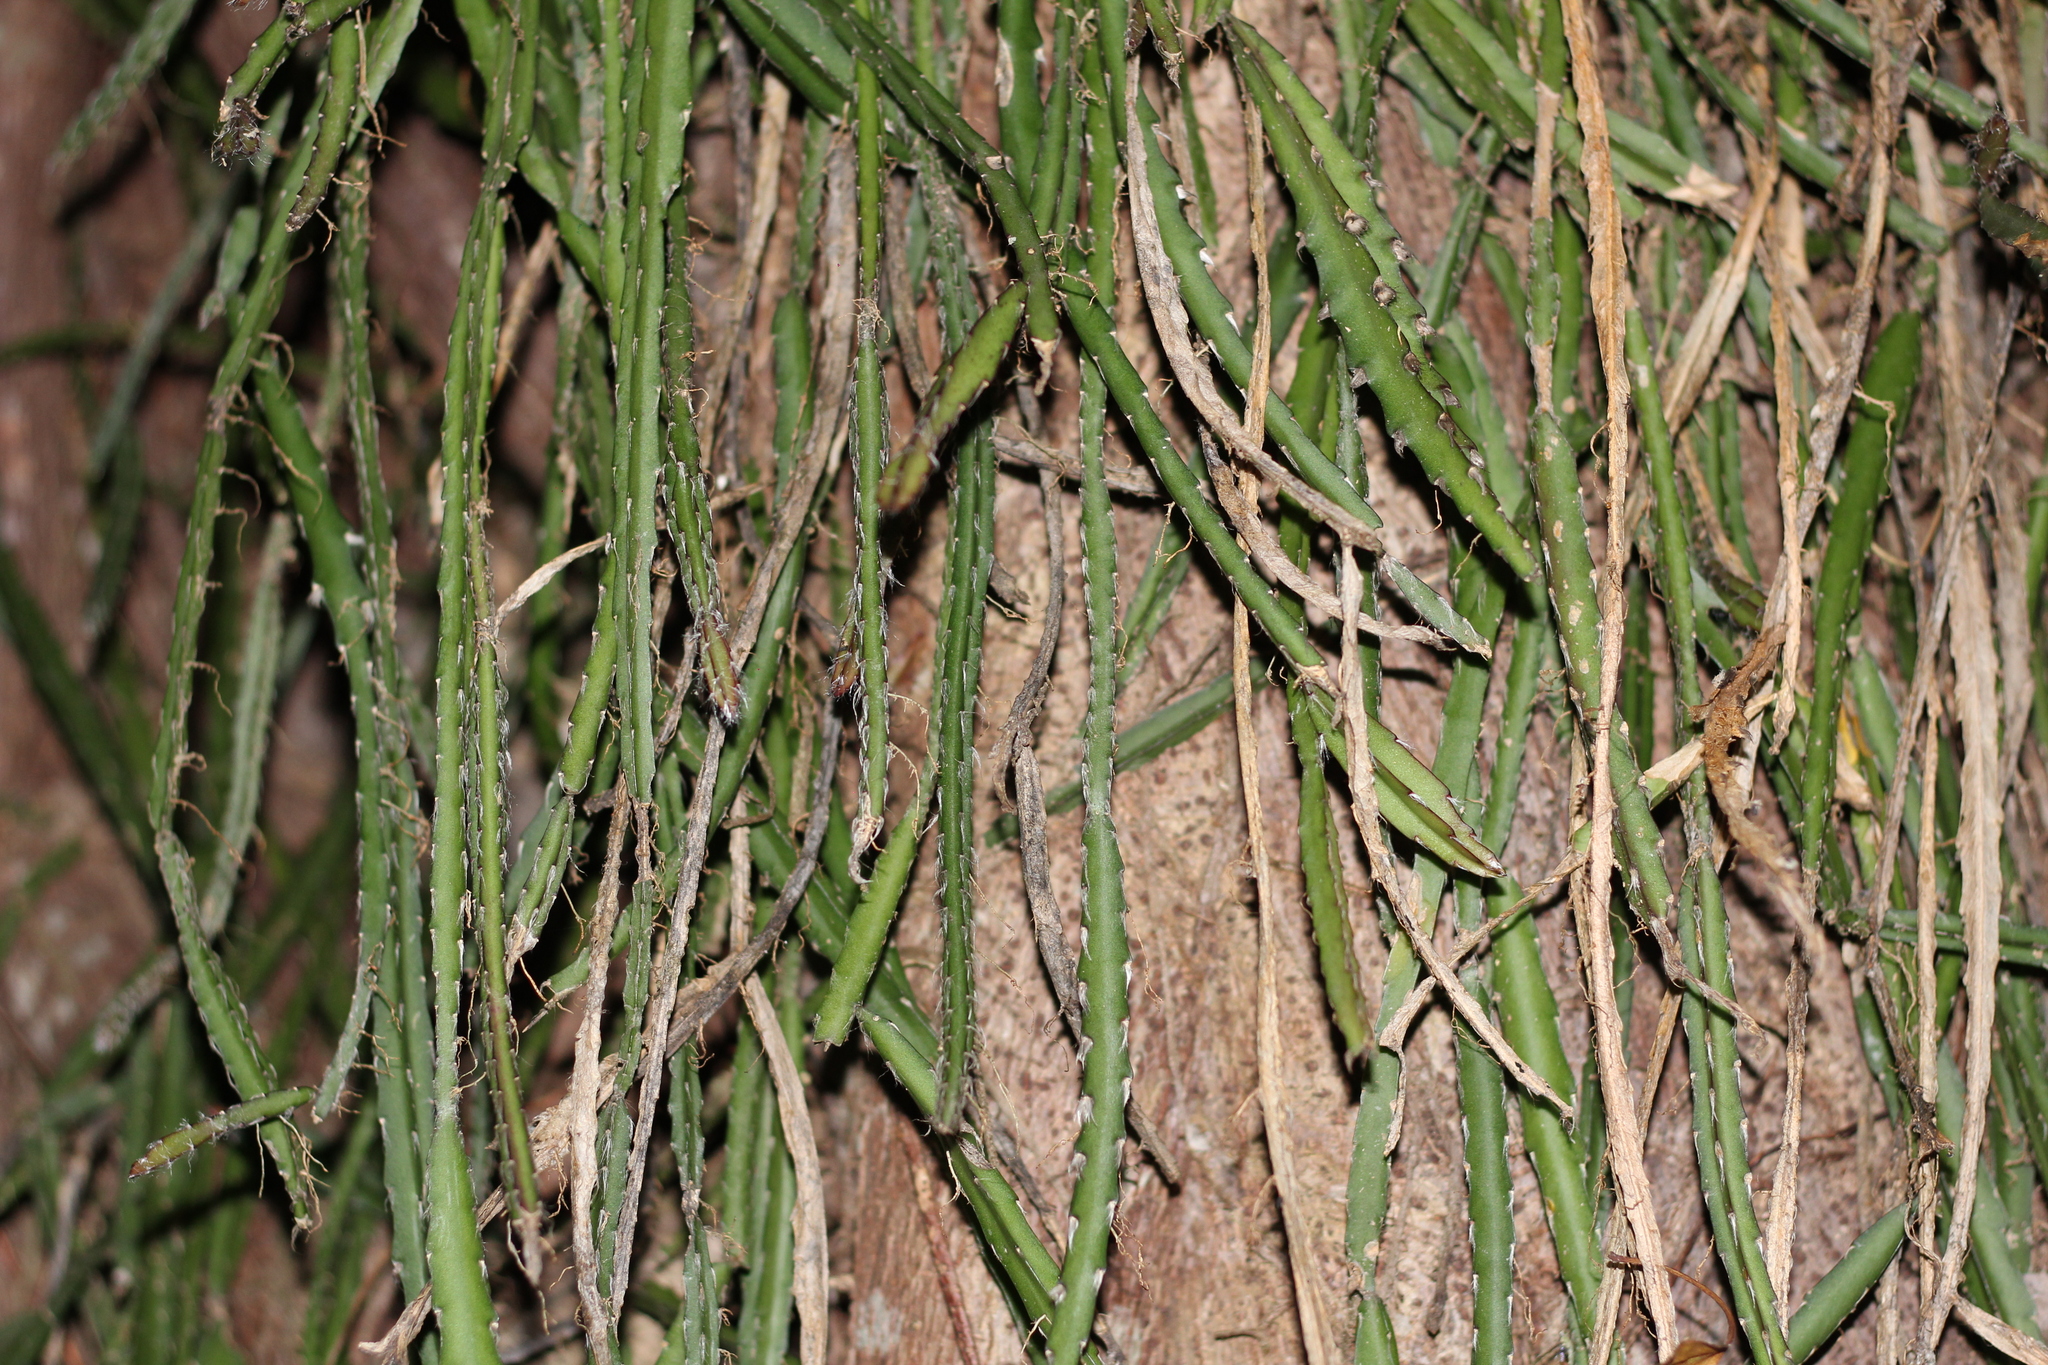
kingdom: Plantae
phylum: Tracheophyta
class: Magnoliopsida
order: Caryophyllales
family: Cactaceae
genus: Lepismium
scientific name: Lepismium cruciforme
